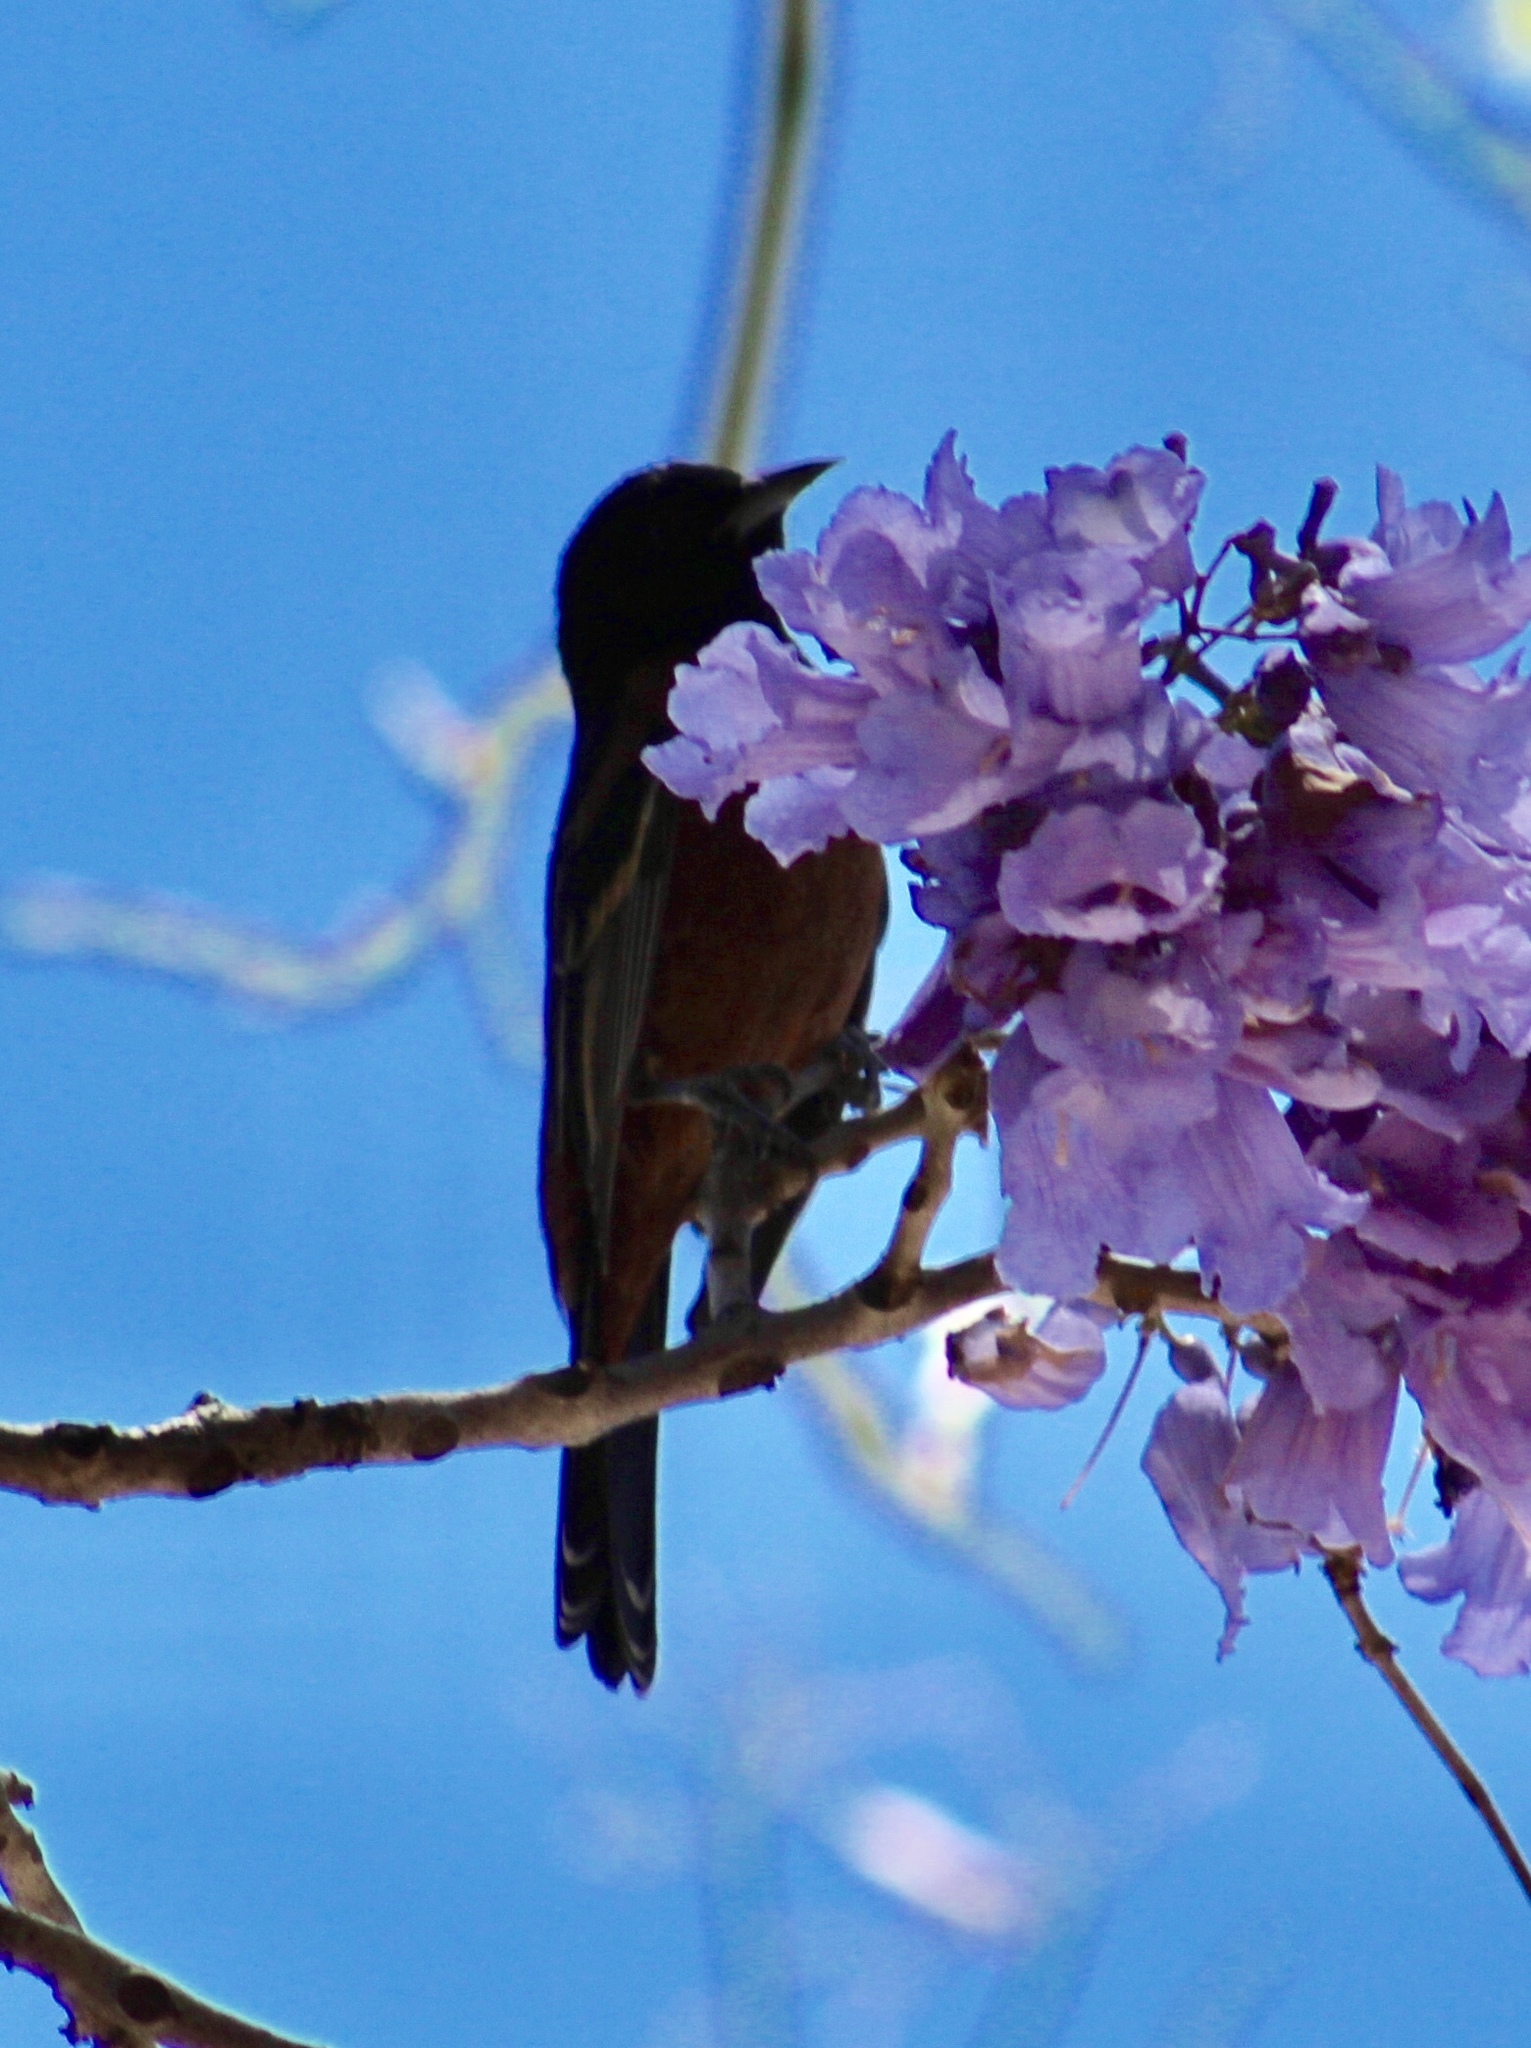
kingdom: Animalia
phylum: Chordata
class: Aves
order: Passeriformes
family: Icteridae
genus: Icterus
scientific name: Icterus spurius
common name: Orchard oriole
